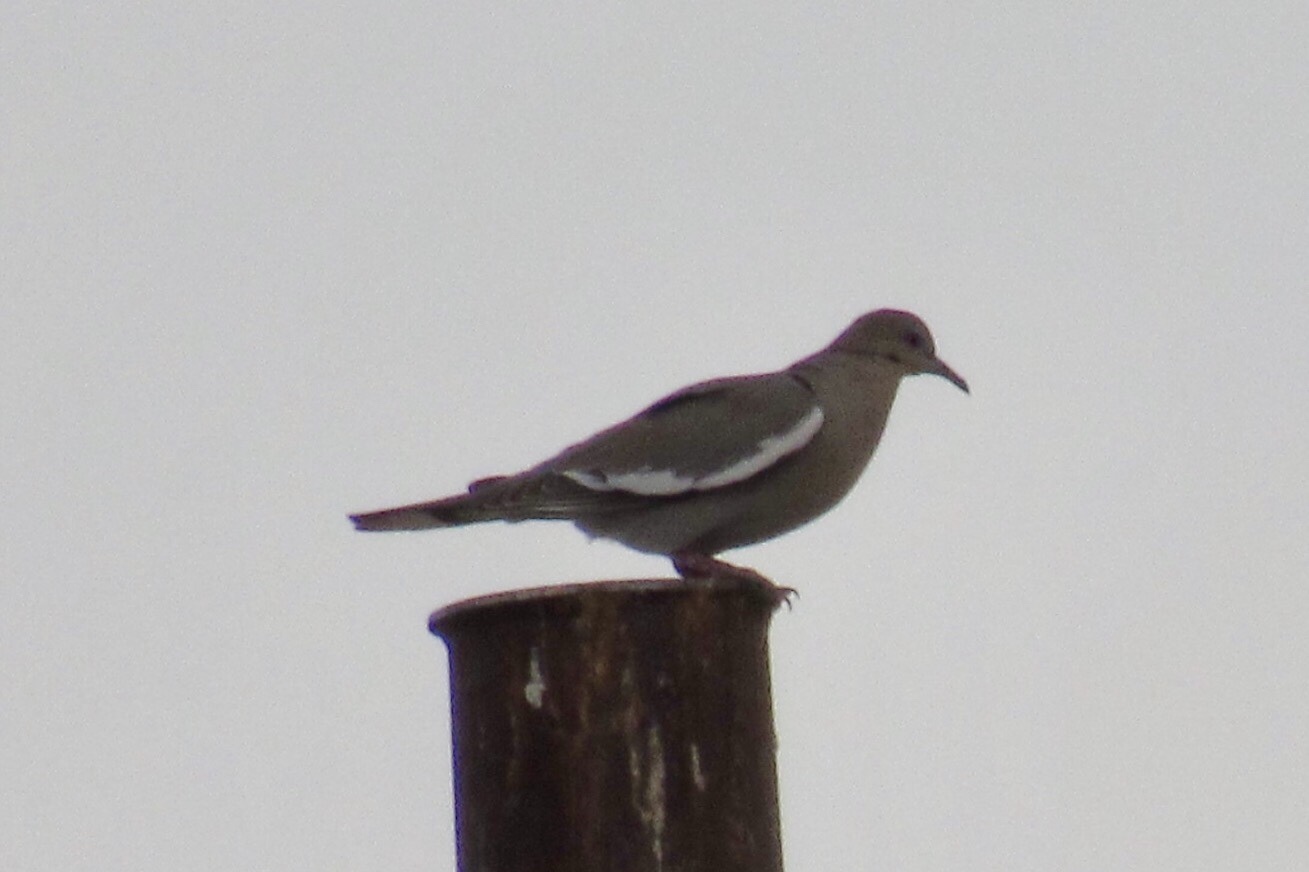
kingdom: Animalia
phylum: Chordata
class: Aves
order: Columbiformes
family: Columbidae
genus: Zenaida
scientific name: Zenaida asiatica
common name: White-winged dove
